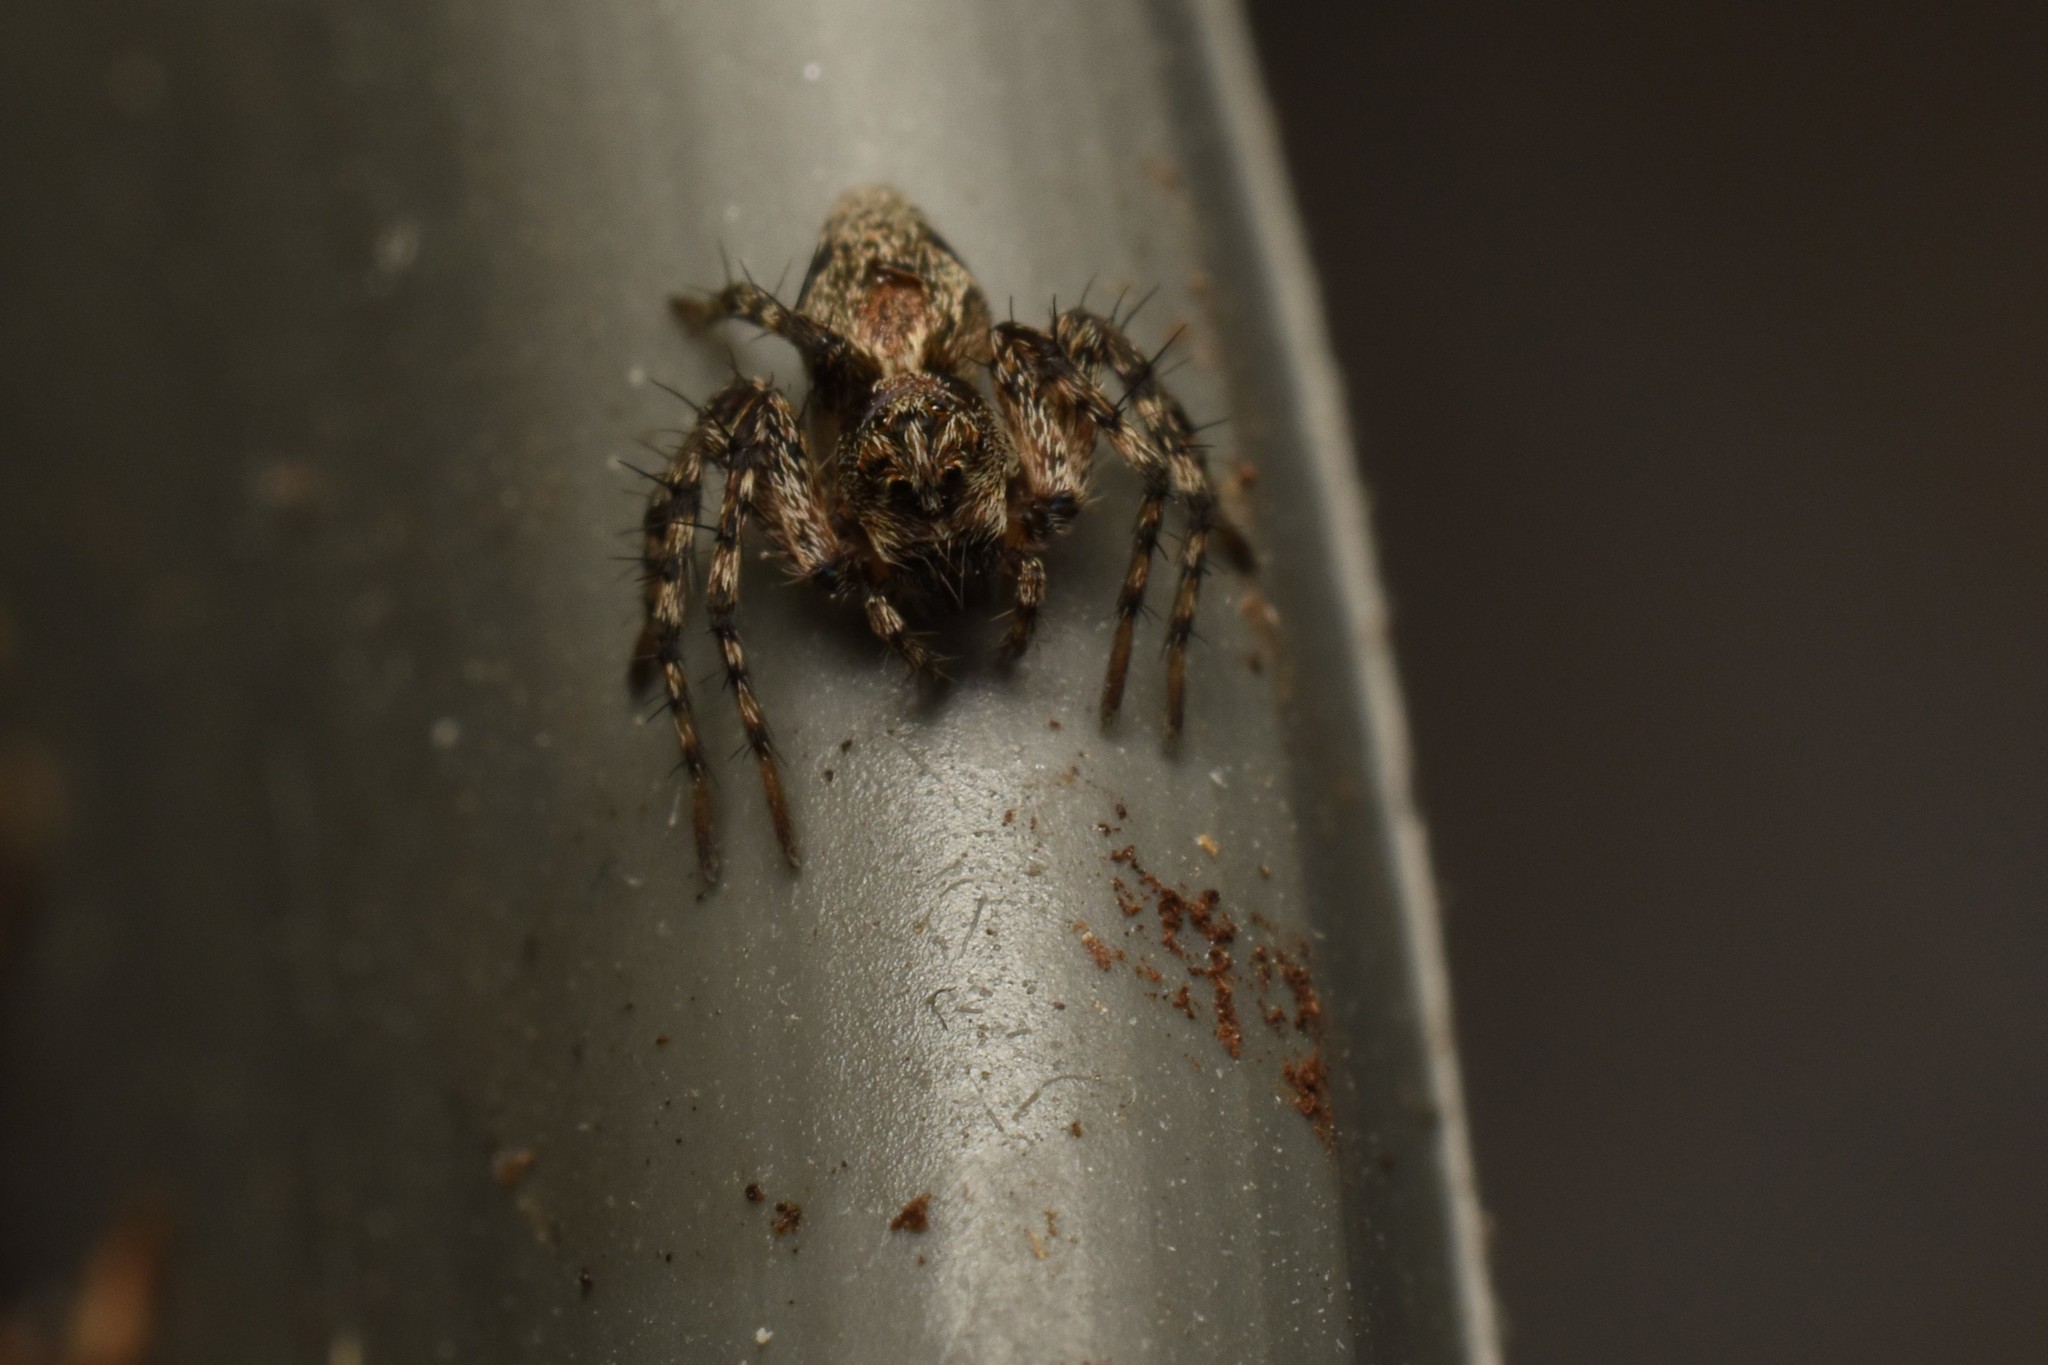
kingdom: Animalia
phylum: Arthropoda
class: Arachnida
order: Araneae
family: Oxyopidae
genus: Oxyopes
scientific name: Oxyopes scalaris
